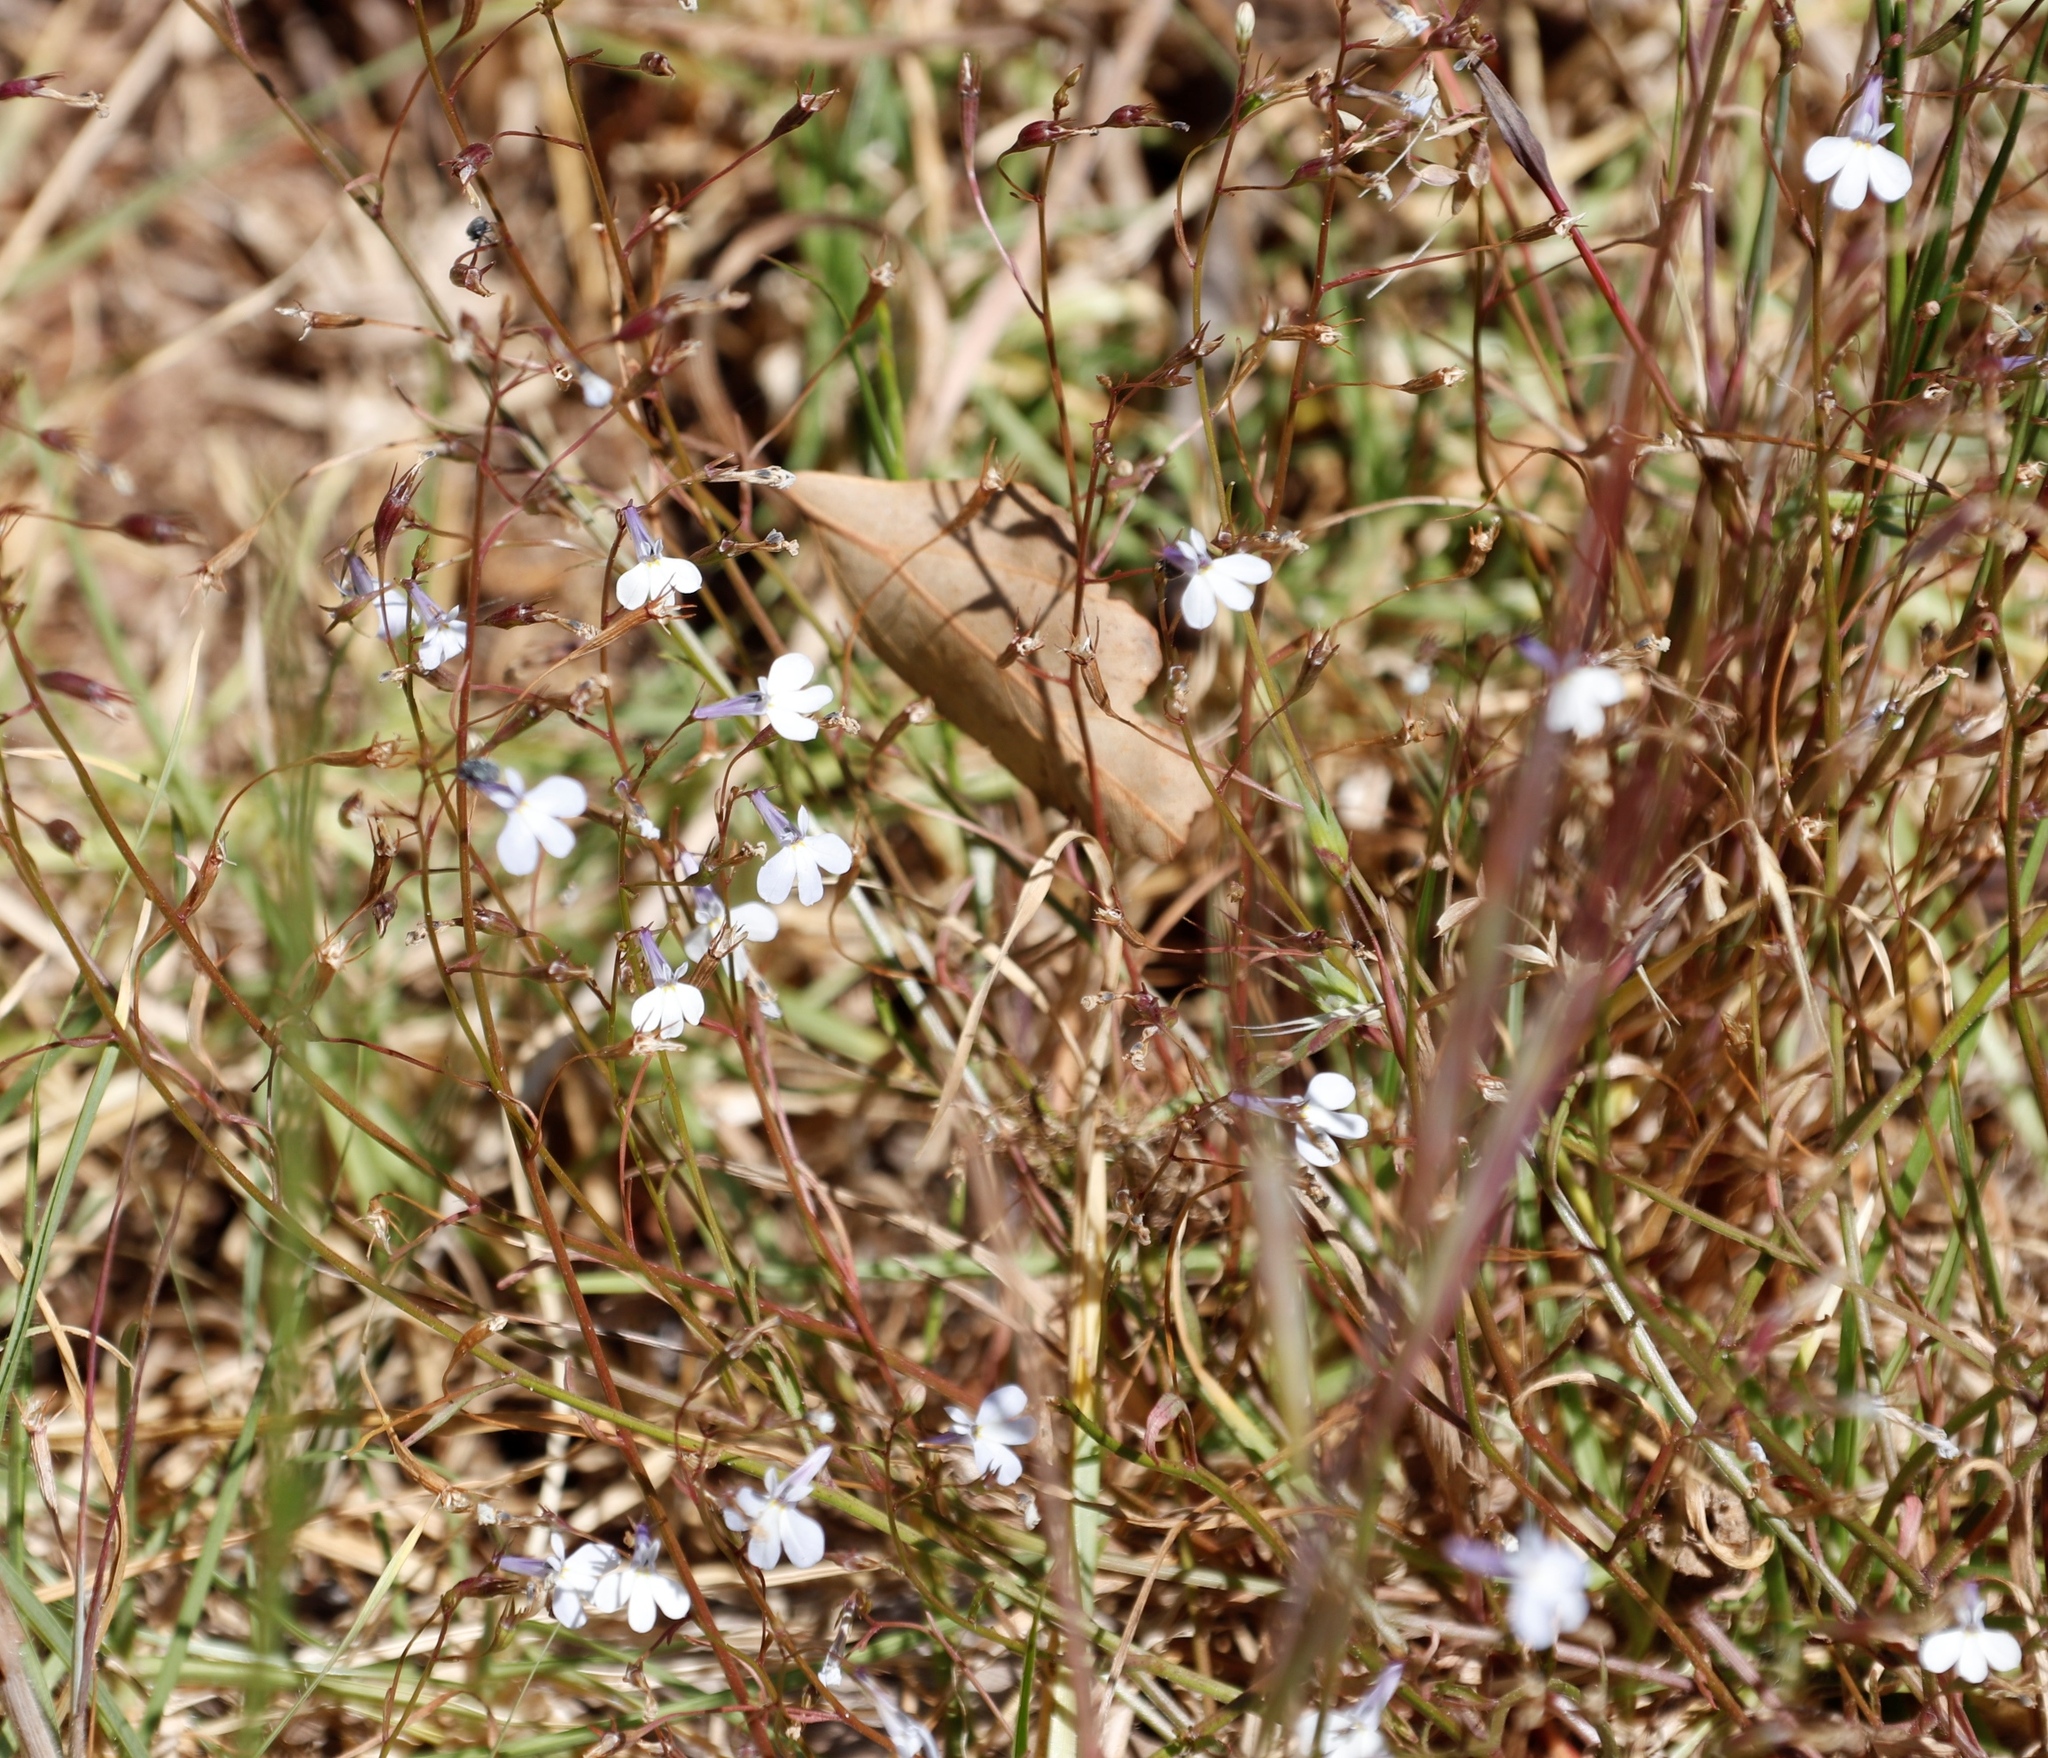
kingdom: Plantae
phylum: Tracheophyta
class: Magnoliopsida
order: Asterales
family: Campanulaceae
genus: Lobelia
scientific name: Lobelia erinus
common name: Edging lobelia
